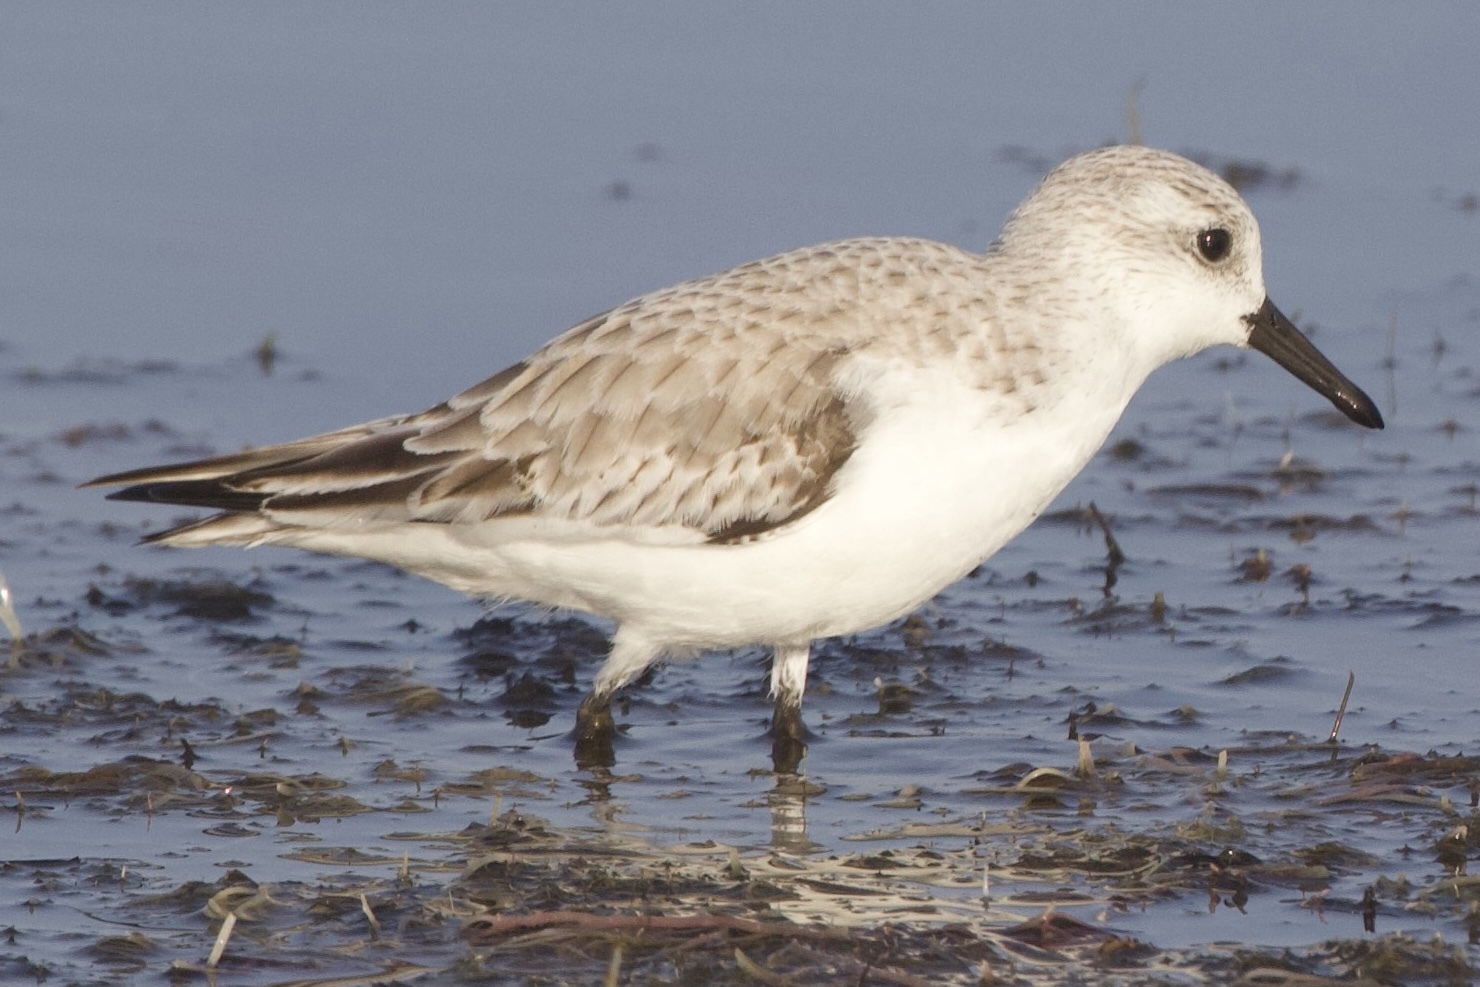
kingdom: Animalia
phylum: Chordata
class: Aves
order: Charadriiformes
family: Scolopacidae
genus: Calidris
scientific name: Calidris alba
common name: Sanderling
